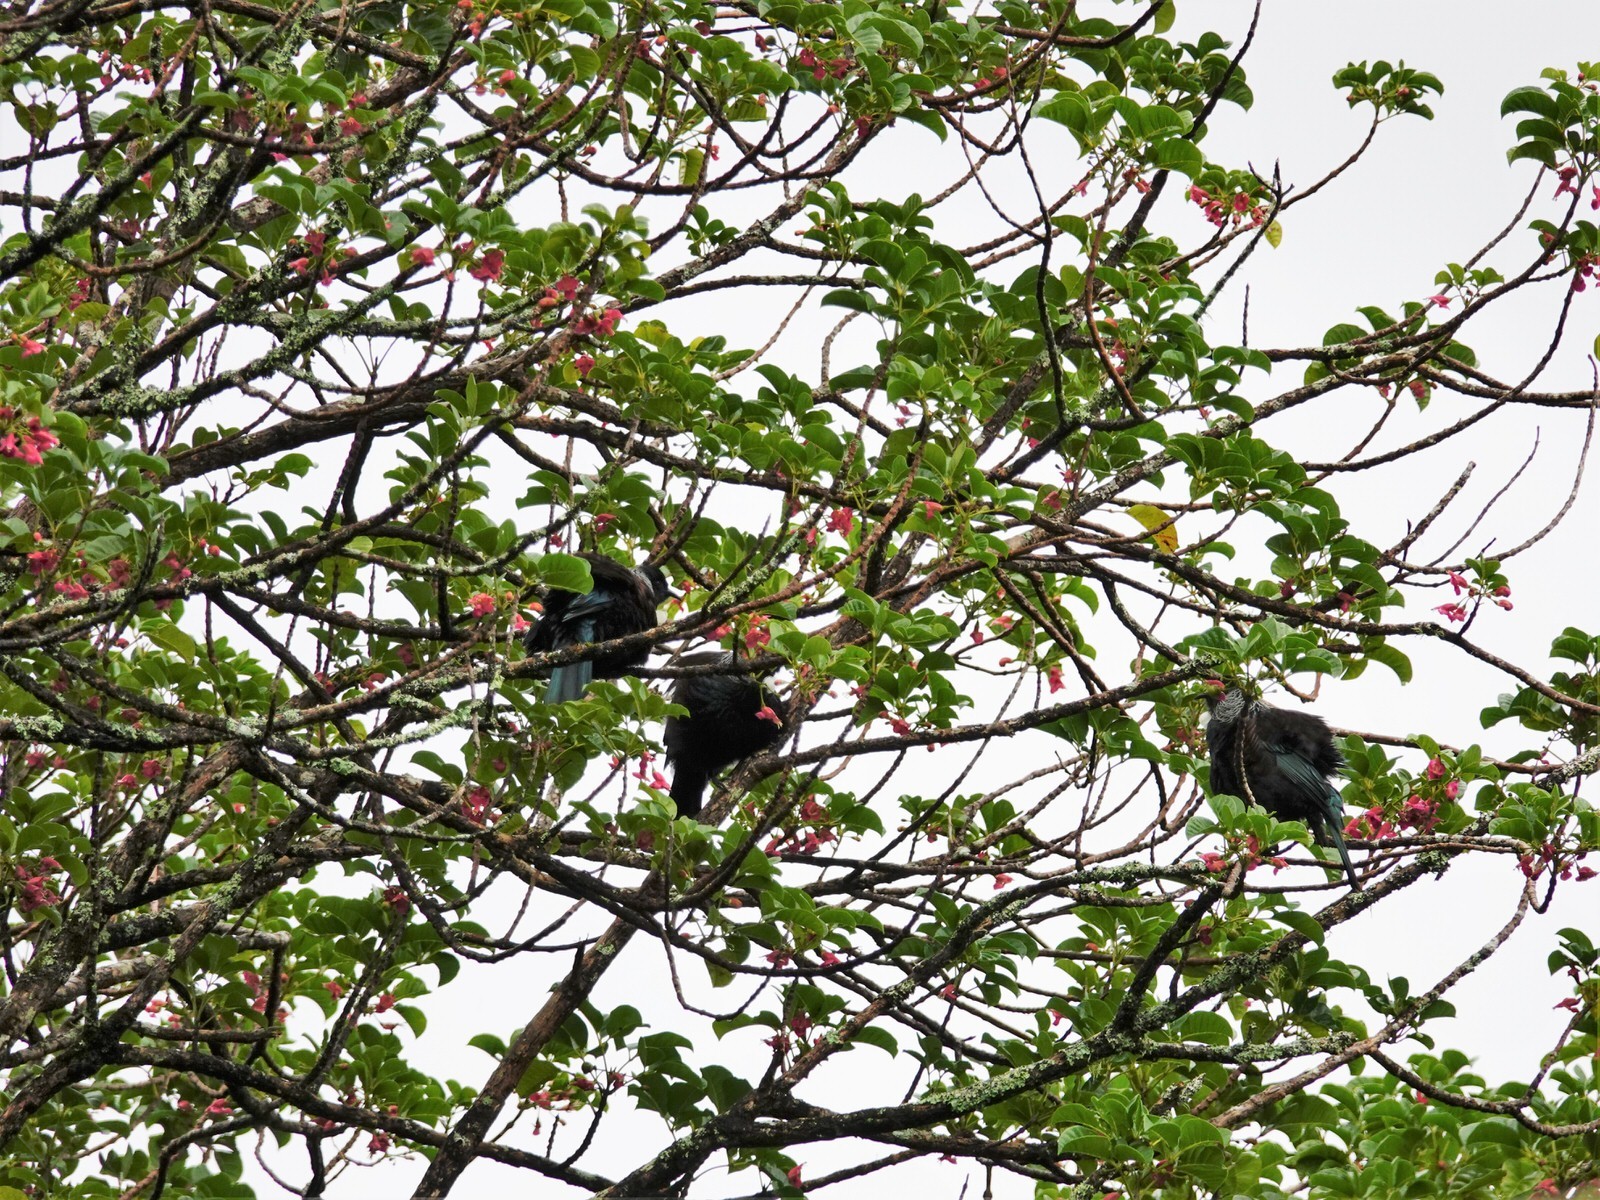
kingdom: Animalia
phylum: Chordata
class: Aves
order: Passeriformes
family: Meliphagidae
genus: Prosthemadera
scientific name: Prosthemadera novaeseelandiae
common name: Tui
